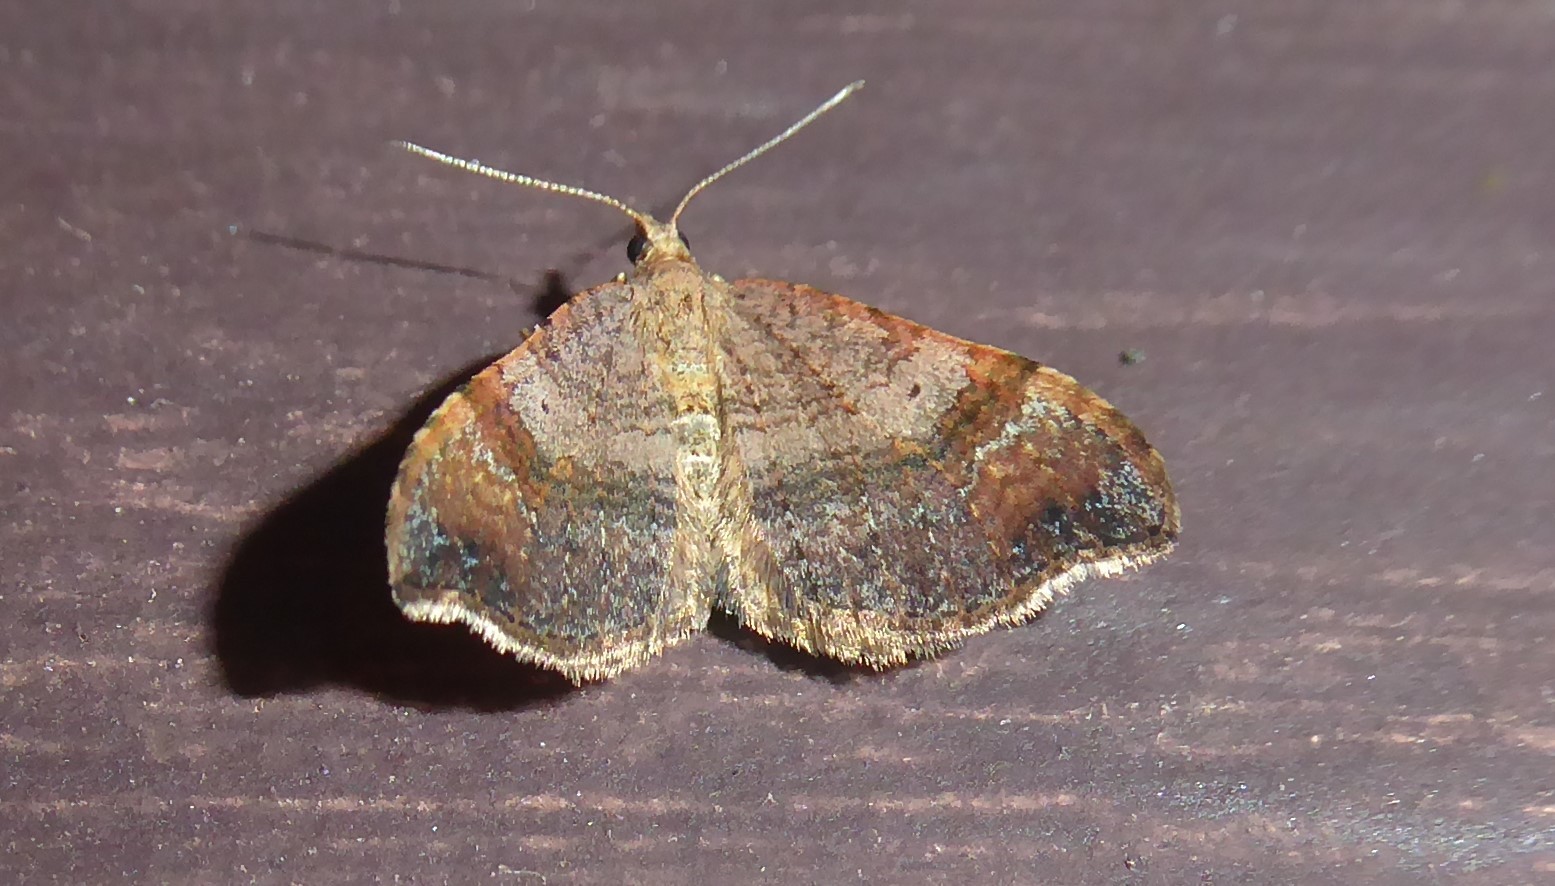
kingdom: Animalia
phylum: Arthropoda
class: Insecta
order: Lepidoptera
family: Geometridae
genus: Homodotis
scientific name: Homodotis megaspilata
